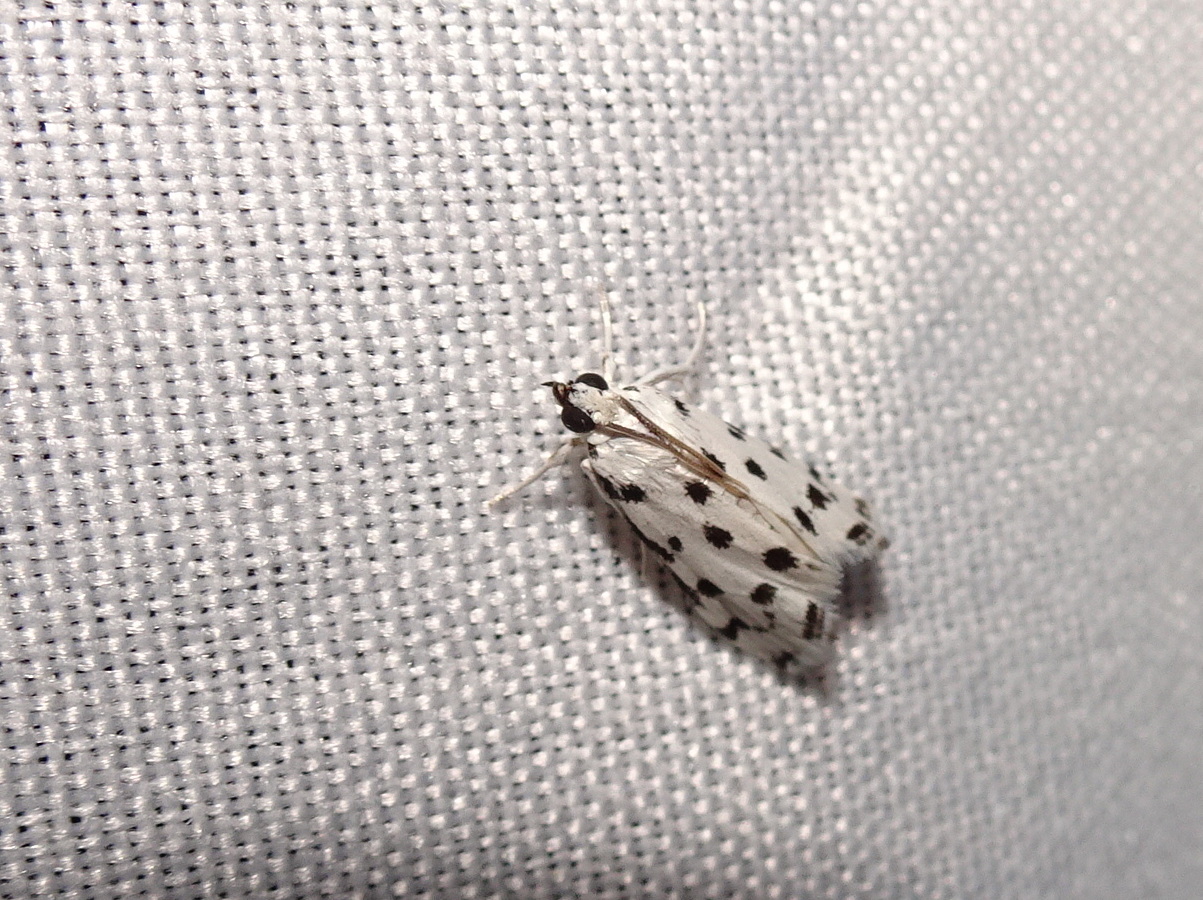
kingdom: Animalia
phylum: Arthropoda
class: Insecta
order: Lepidoptera
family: Crambidae
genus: Eustixia
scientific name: Eustixia pupula
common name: American cabbage pearl
